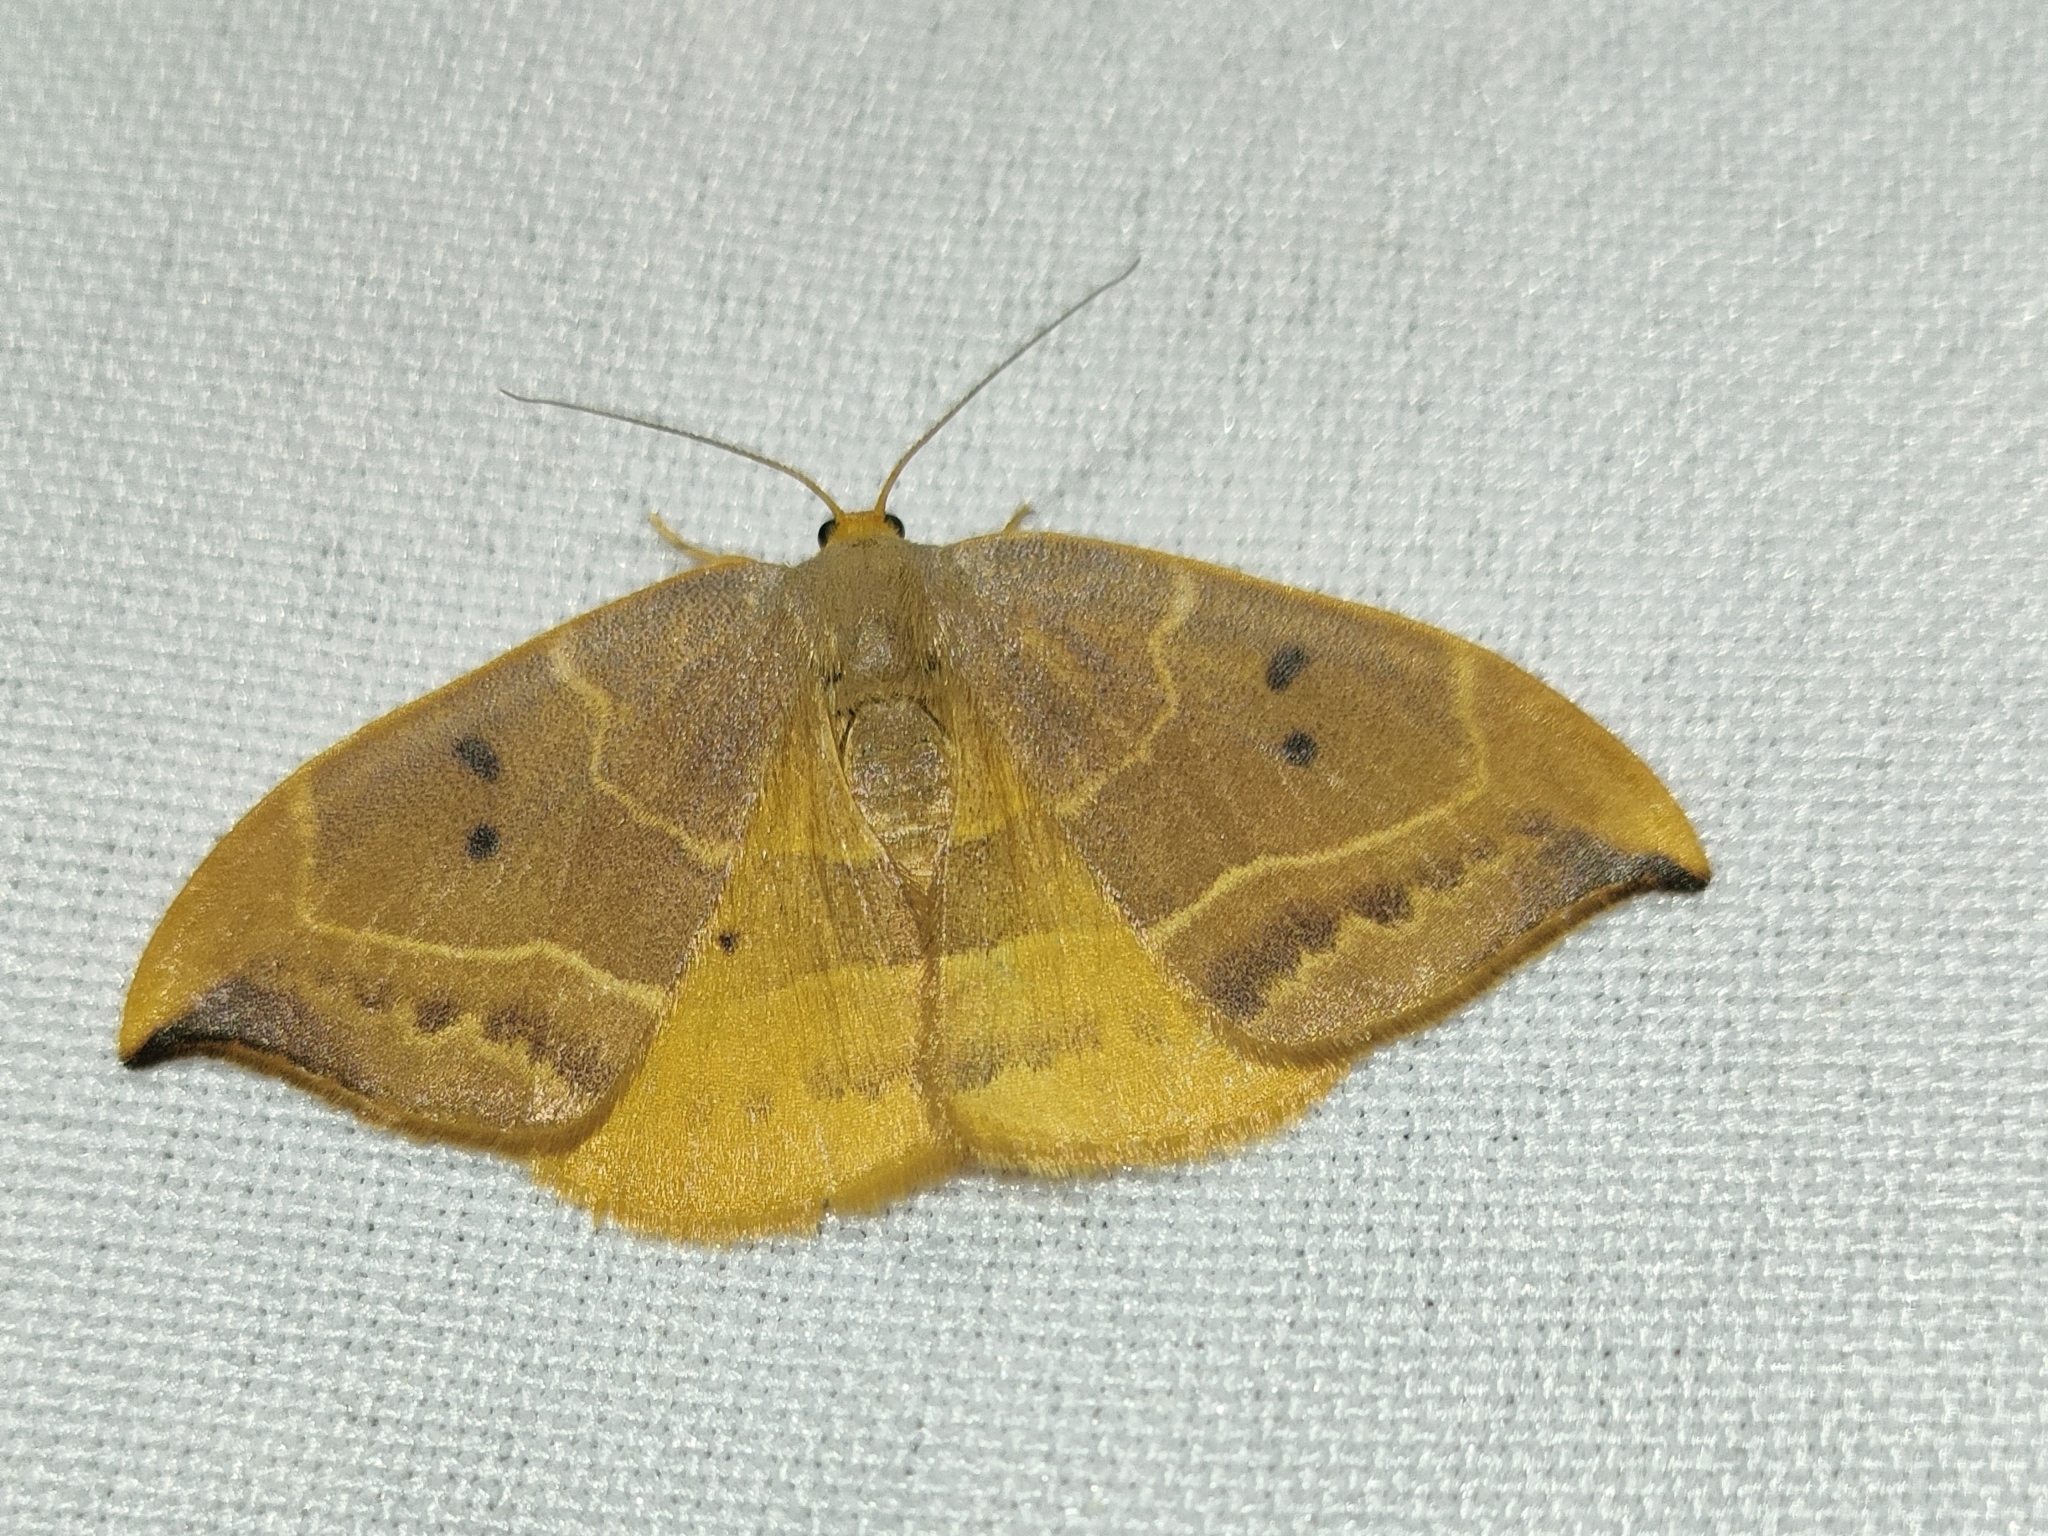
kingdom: Animalia
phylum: Arthropoda
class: Insecta
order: Lepidoptera
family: Drepanidae
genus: Watsonalla
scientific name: Watsonalla binaria
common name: Oak hook-tip
